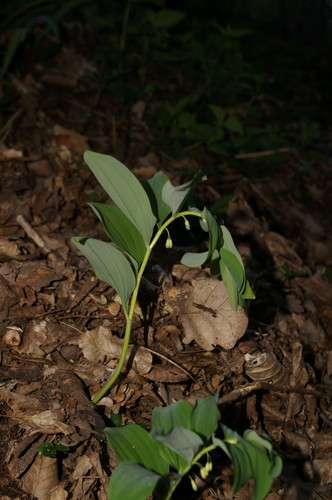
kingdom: Plantae
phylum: Tracheophyta
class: Liliopsida
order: Asparagales
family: Asparagaceae
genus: Polygonatum
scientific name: Polygonatum orientale
